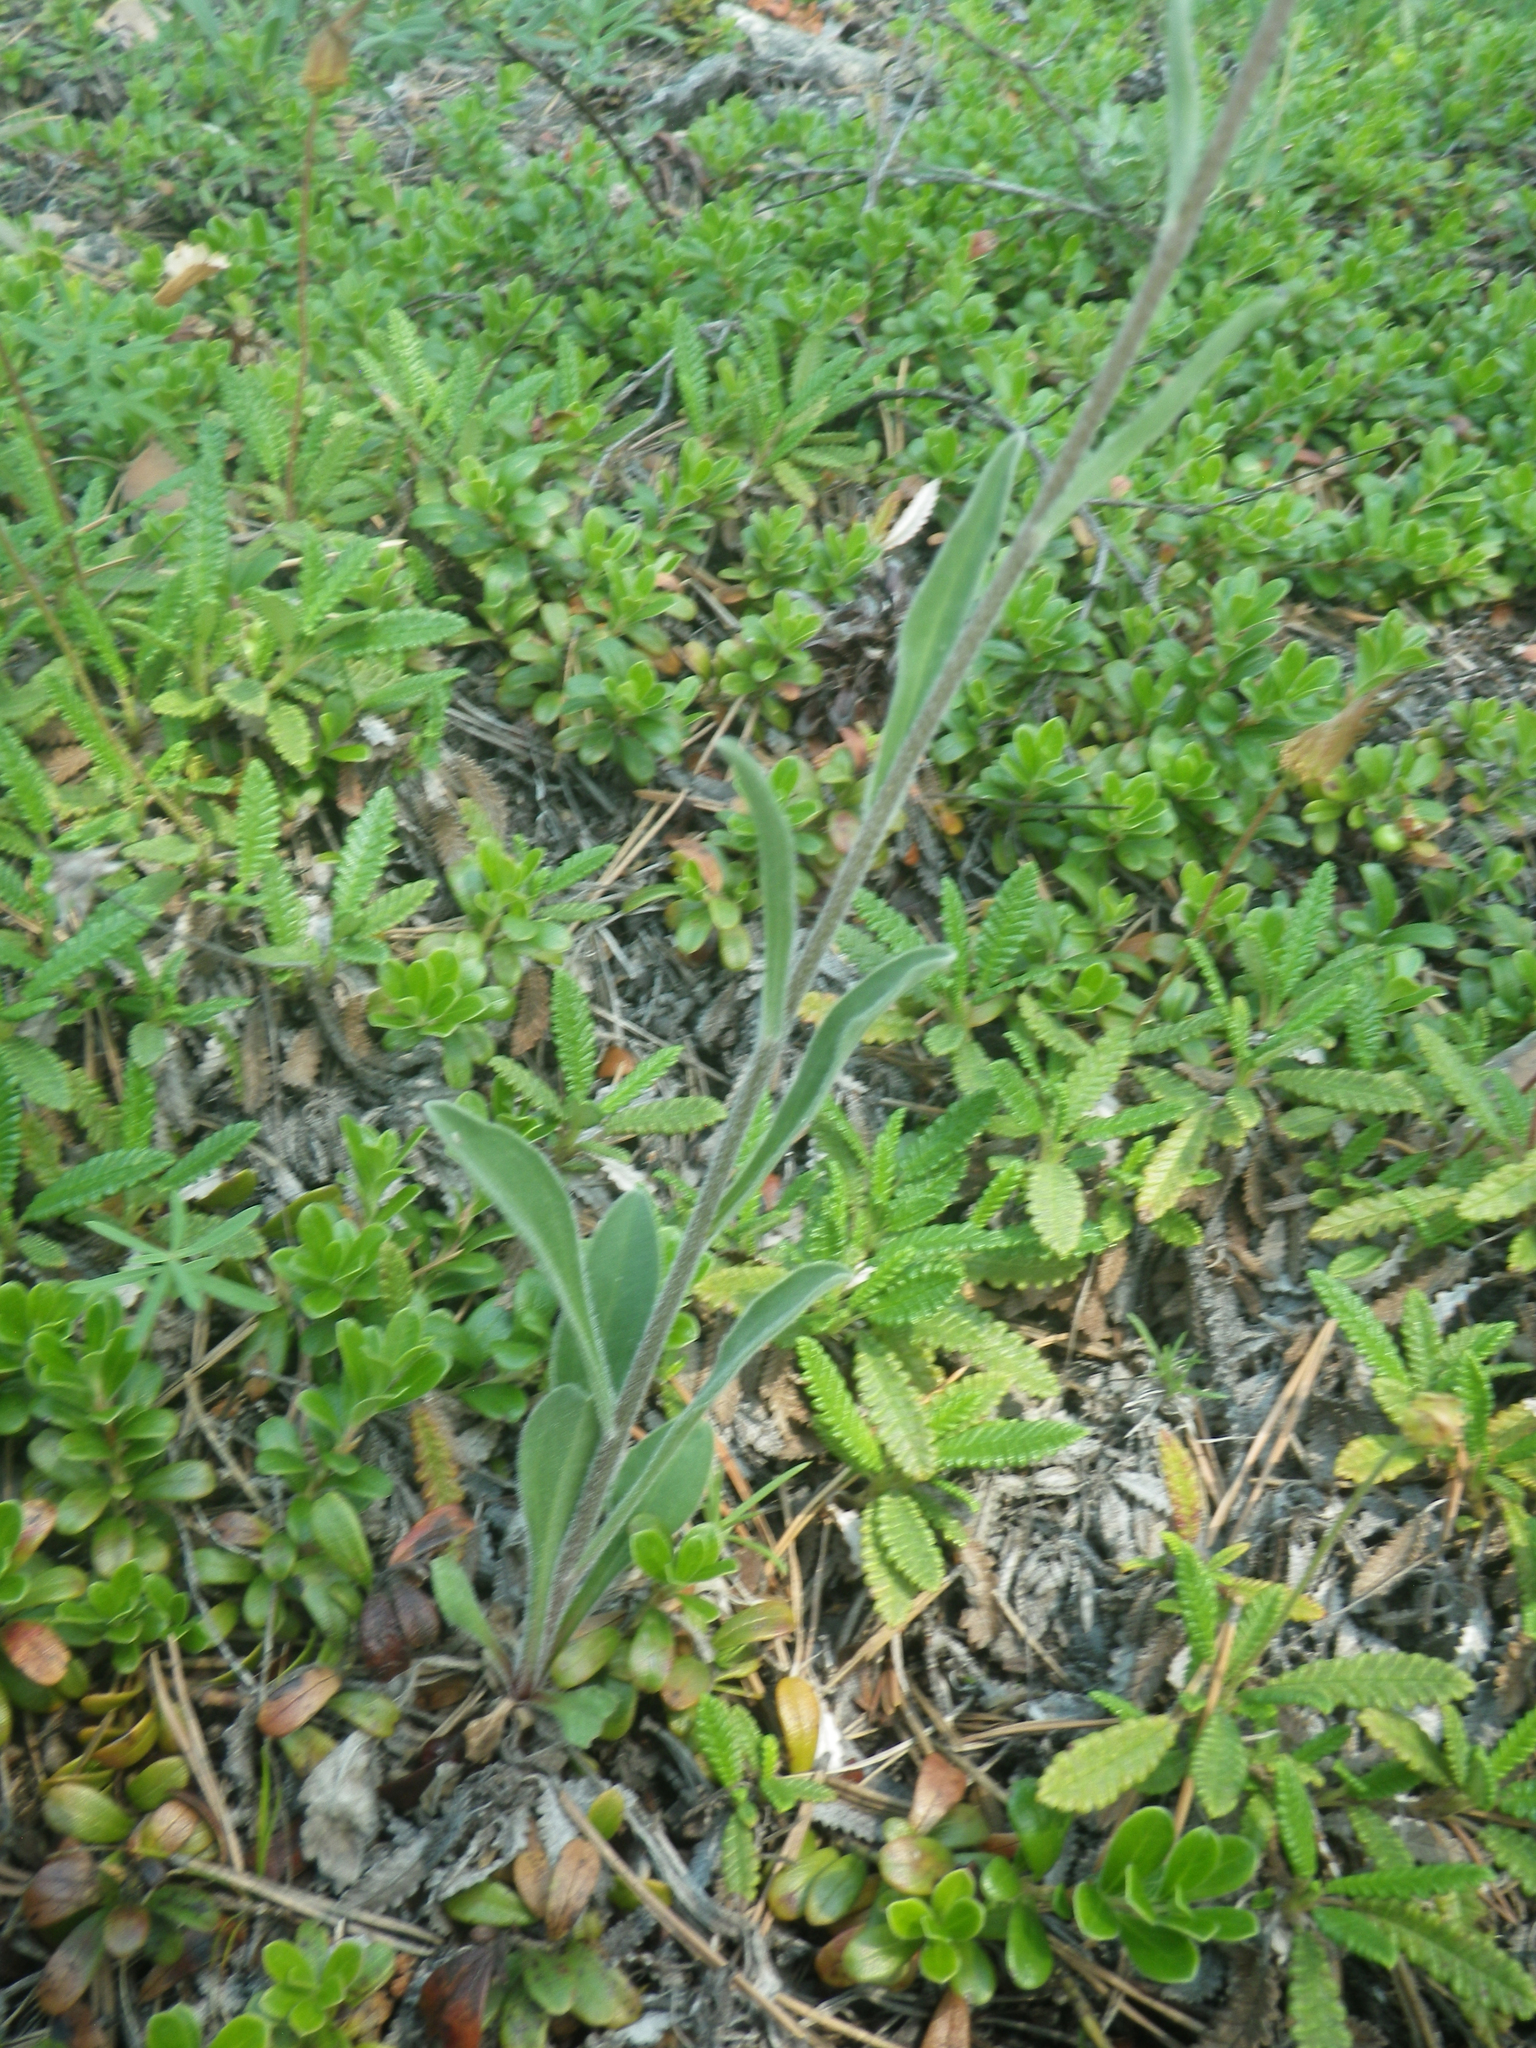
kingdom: Plantae
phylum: Tracheophyta
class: Magnoliopsida
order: Asterales
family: Asteraceae
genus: Aster
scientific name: Aster alpinus
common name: Alpine aster
